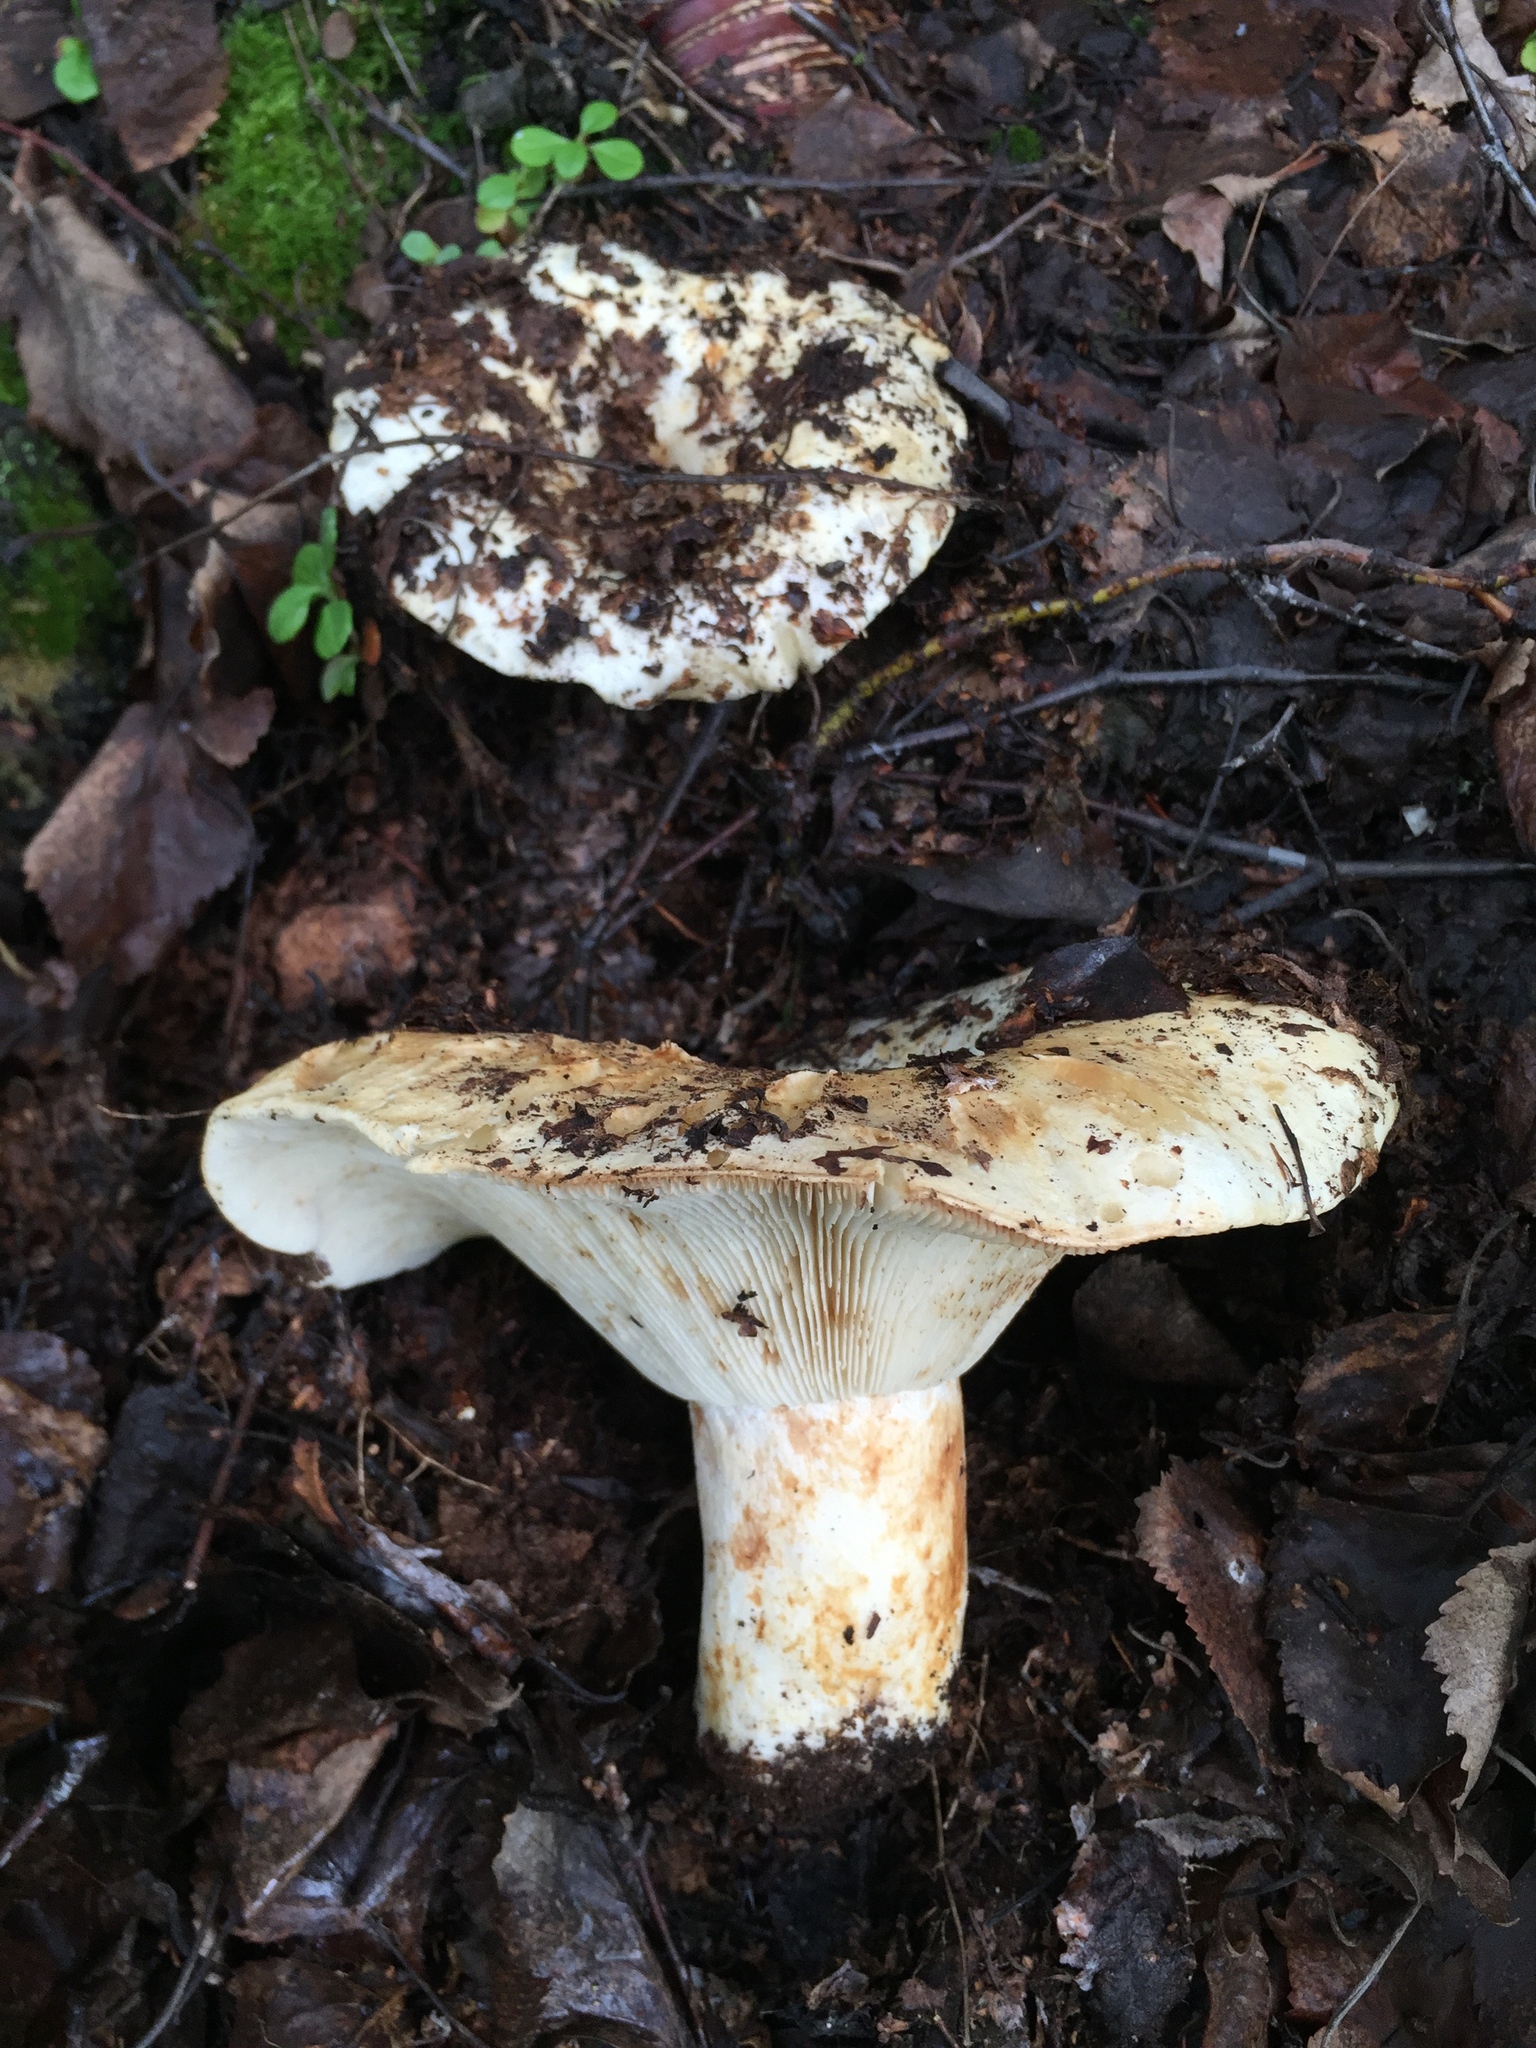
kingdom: Fungi
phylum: Basidiomycota
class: Agaricomycetes
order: Russulales
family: Russulaceae
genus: Russula
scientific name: Russula brevipes
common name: Short-stemmed russula
